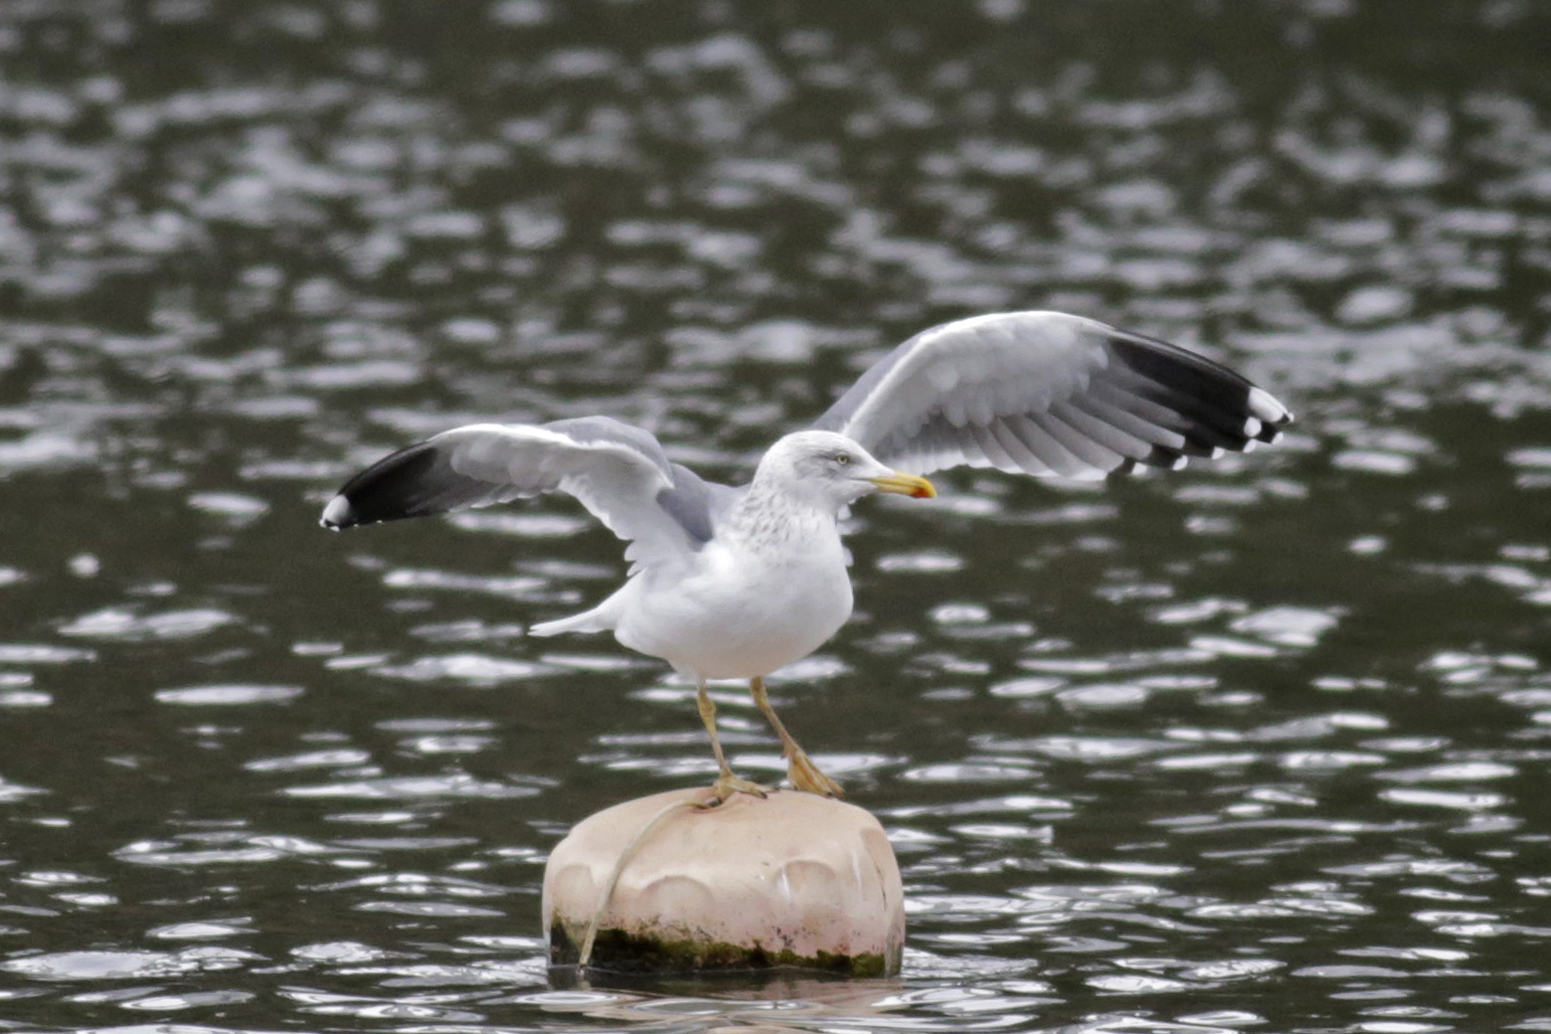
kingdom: Animalia
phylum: Chordata
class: Aves
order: Charadriiformes
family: Laridae
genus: Larus
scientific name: Larus fuscus
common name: Lesser black-backed gull
